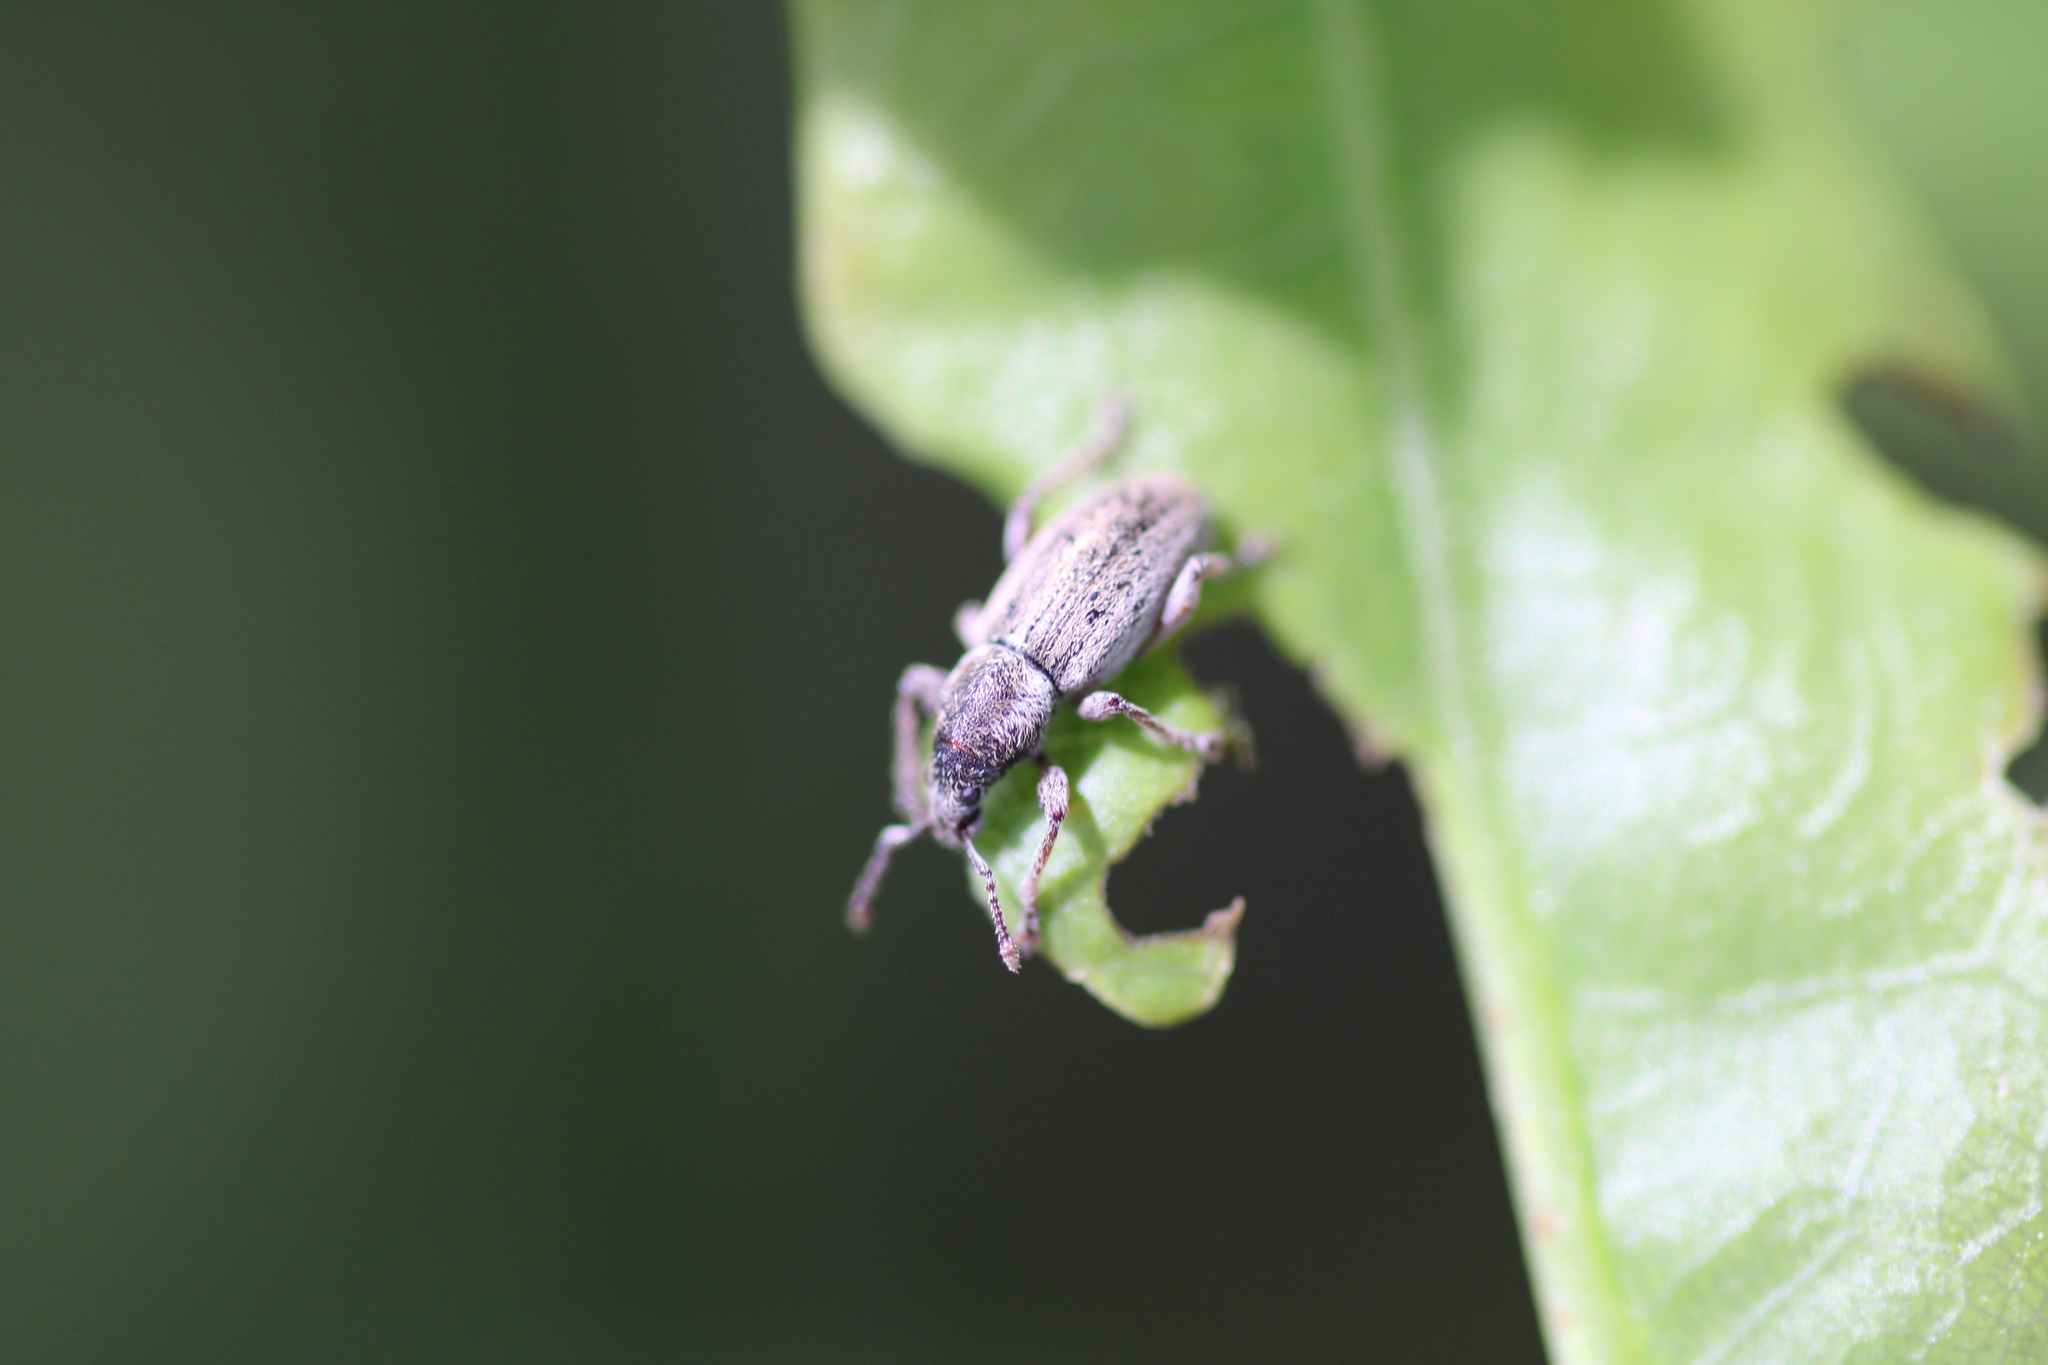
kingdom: Animalia
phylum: Arthropoda
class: Insecta
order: Coleoptera
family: Curculionidae
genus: Polydrusus
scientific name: Polydrusus marginatus
